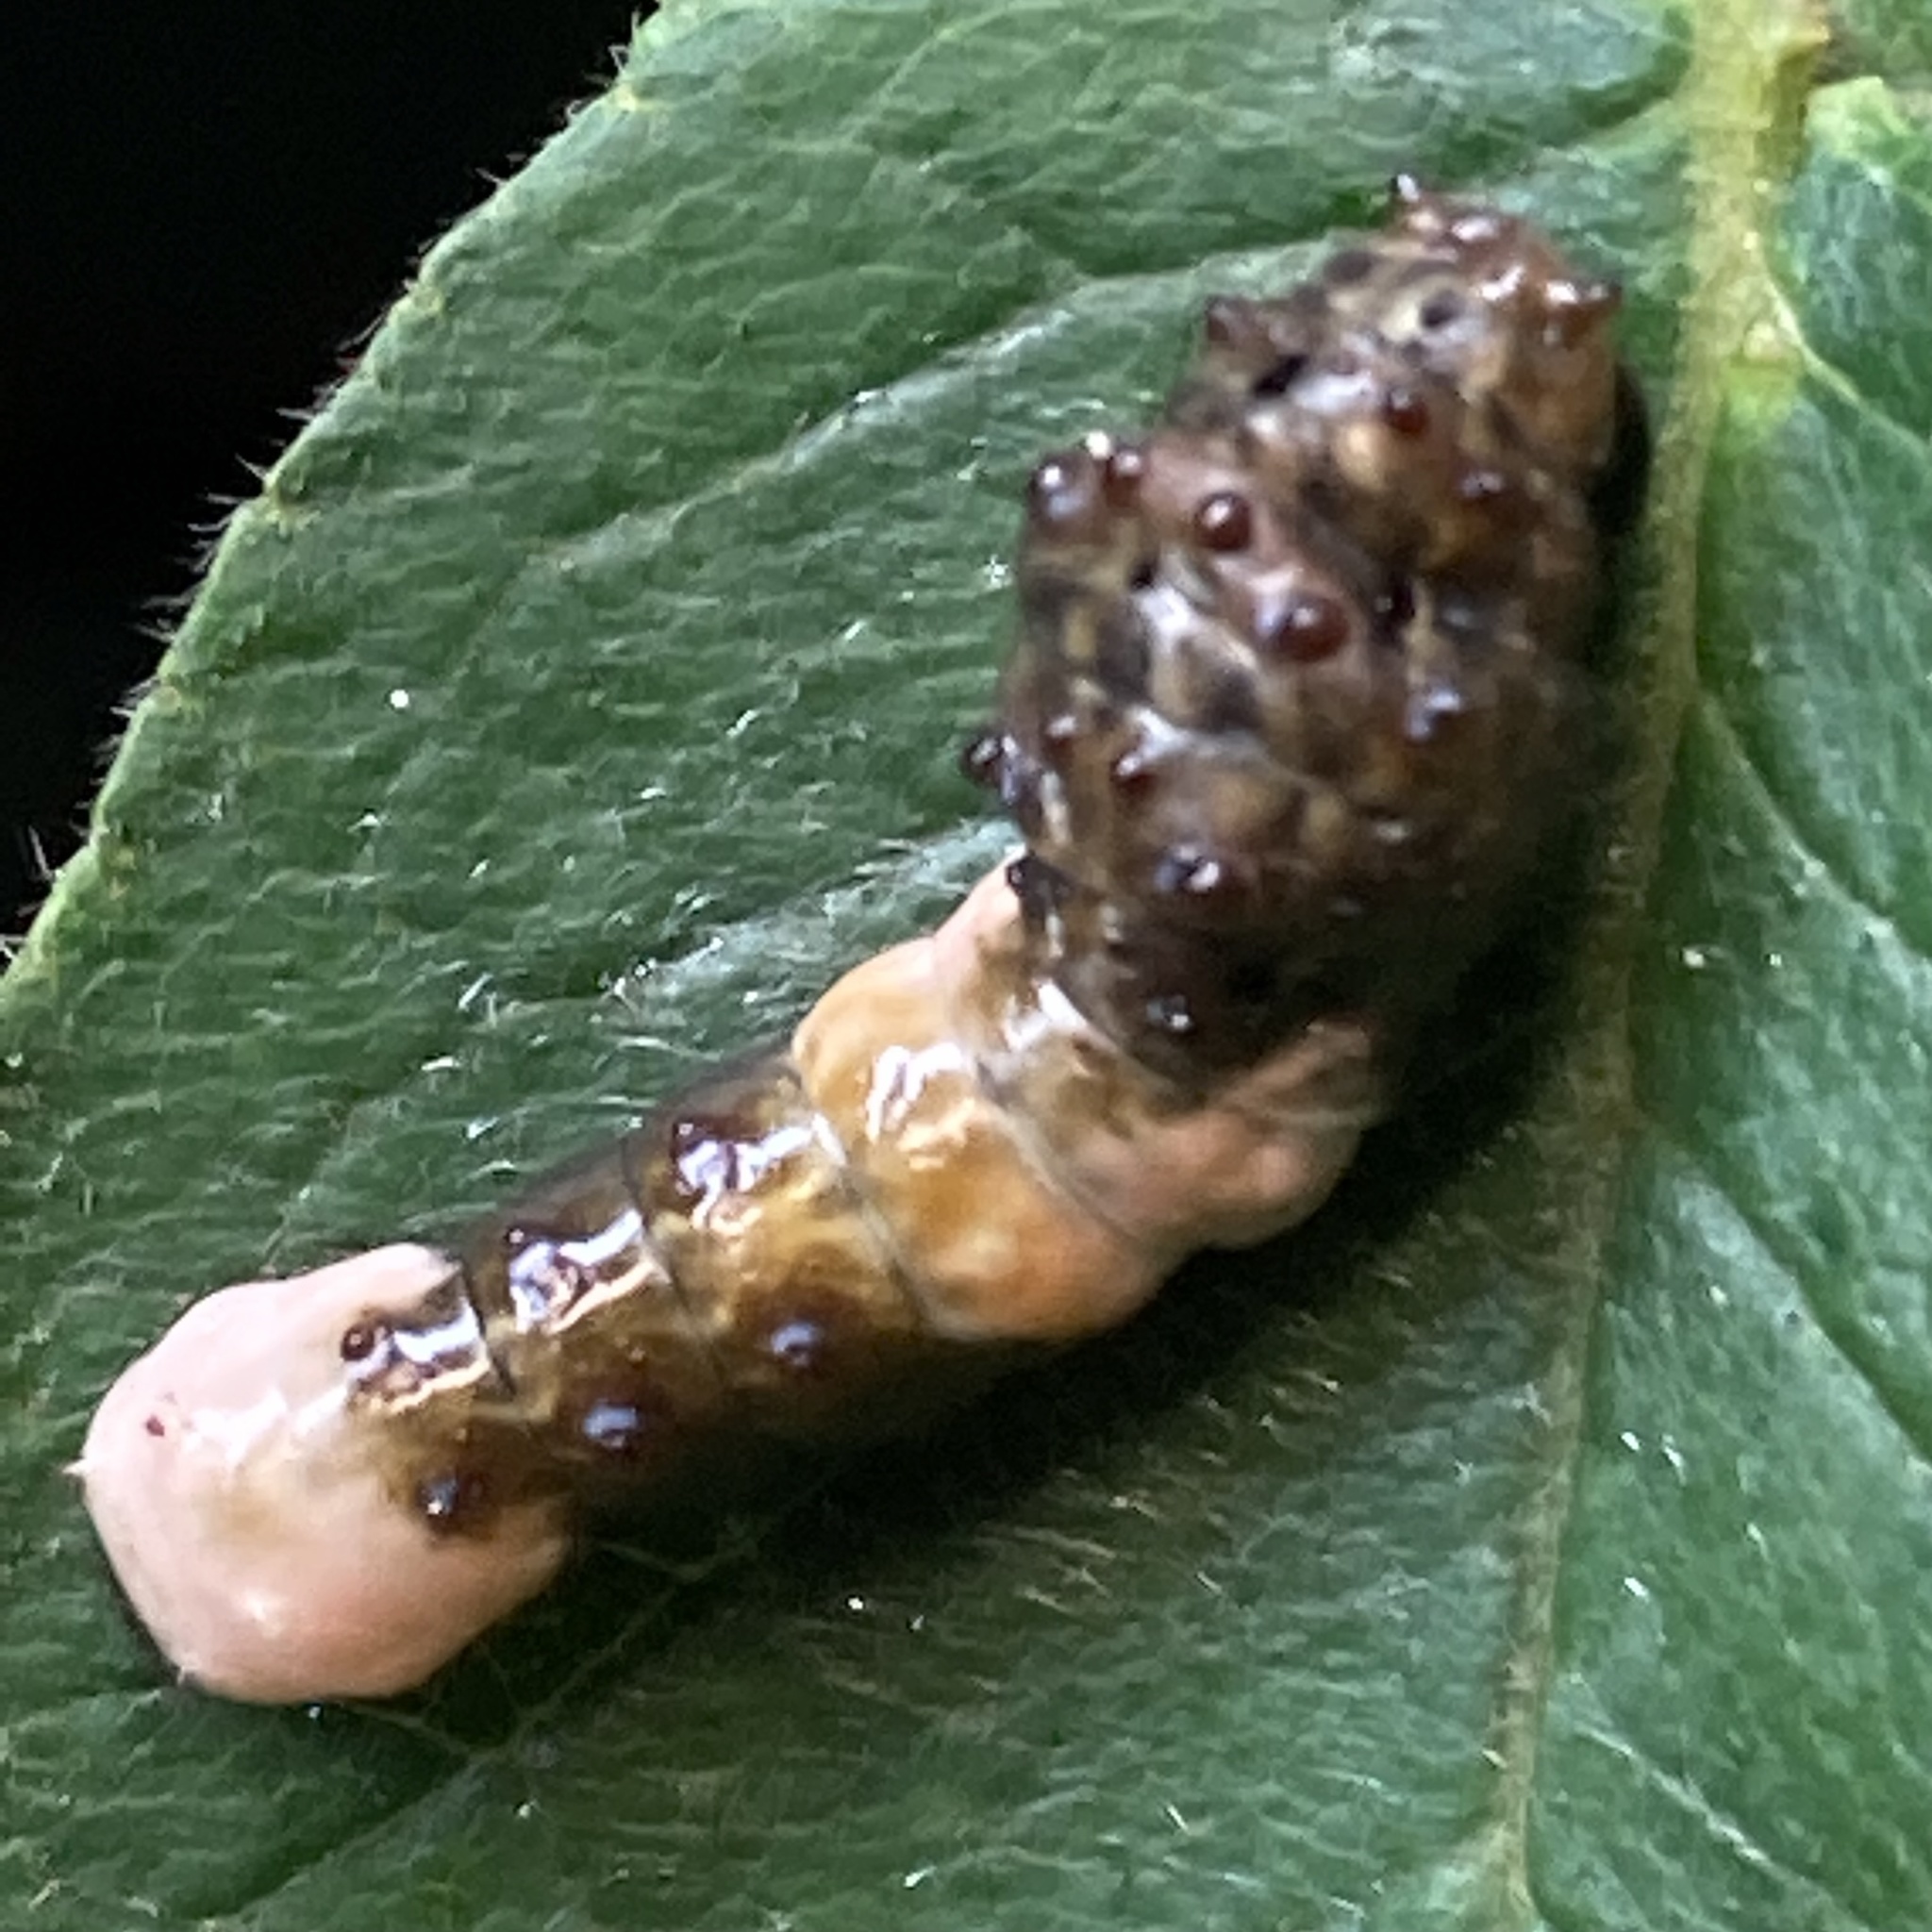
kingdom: Animalia
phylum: Arthropoda
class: Insecta
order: Lepidoptera
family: Papilionidae
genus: Papilio
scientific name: Papilio cresphontes
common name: Giant swallowtail
